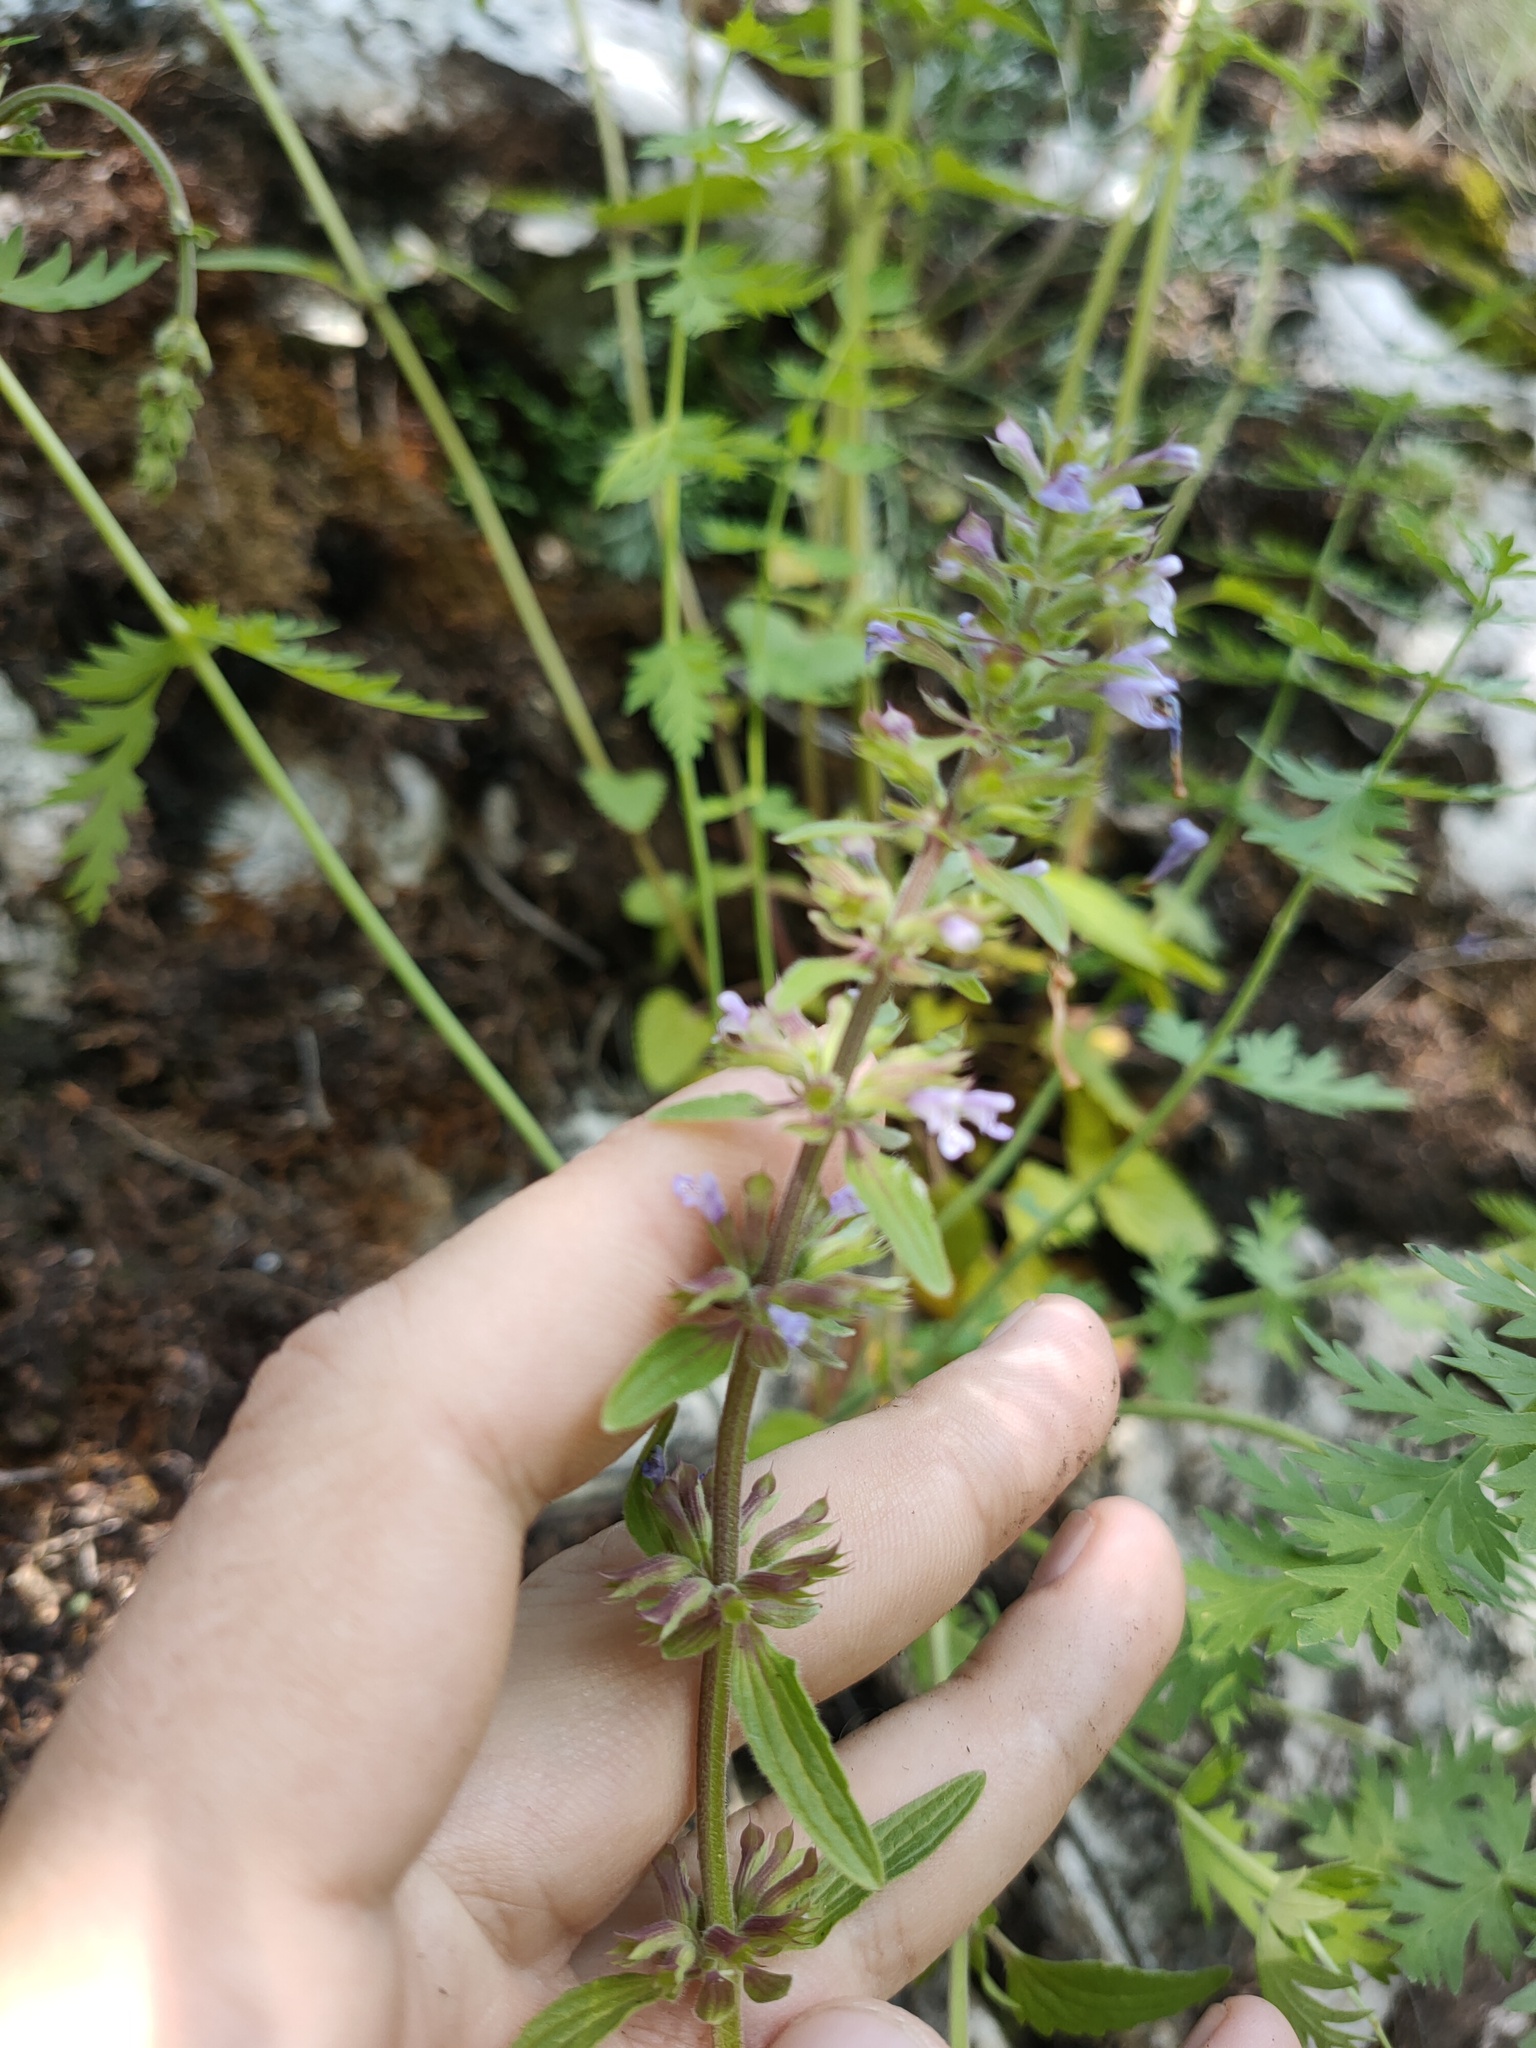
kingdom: Plantae
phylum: Tracheophyta
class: Magnoliopsida
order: Lamiales
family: Lamiaceae
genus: Dracocephalum
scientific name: Dracocephalum thymiflorum
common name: Thymeleaf dragonhead
